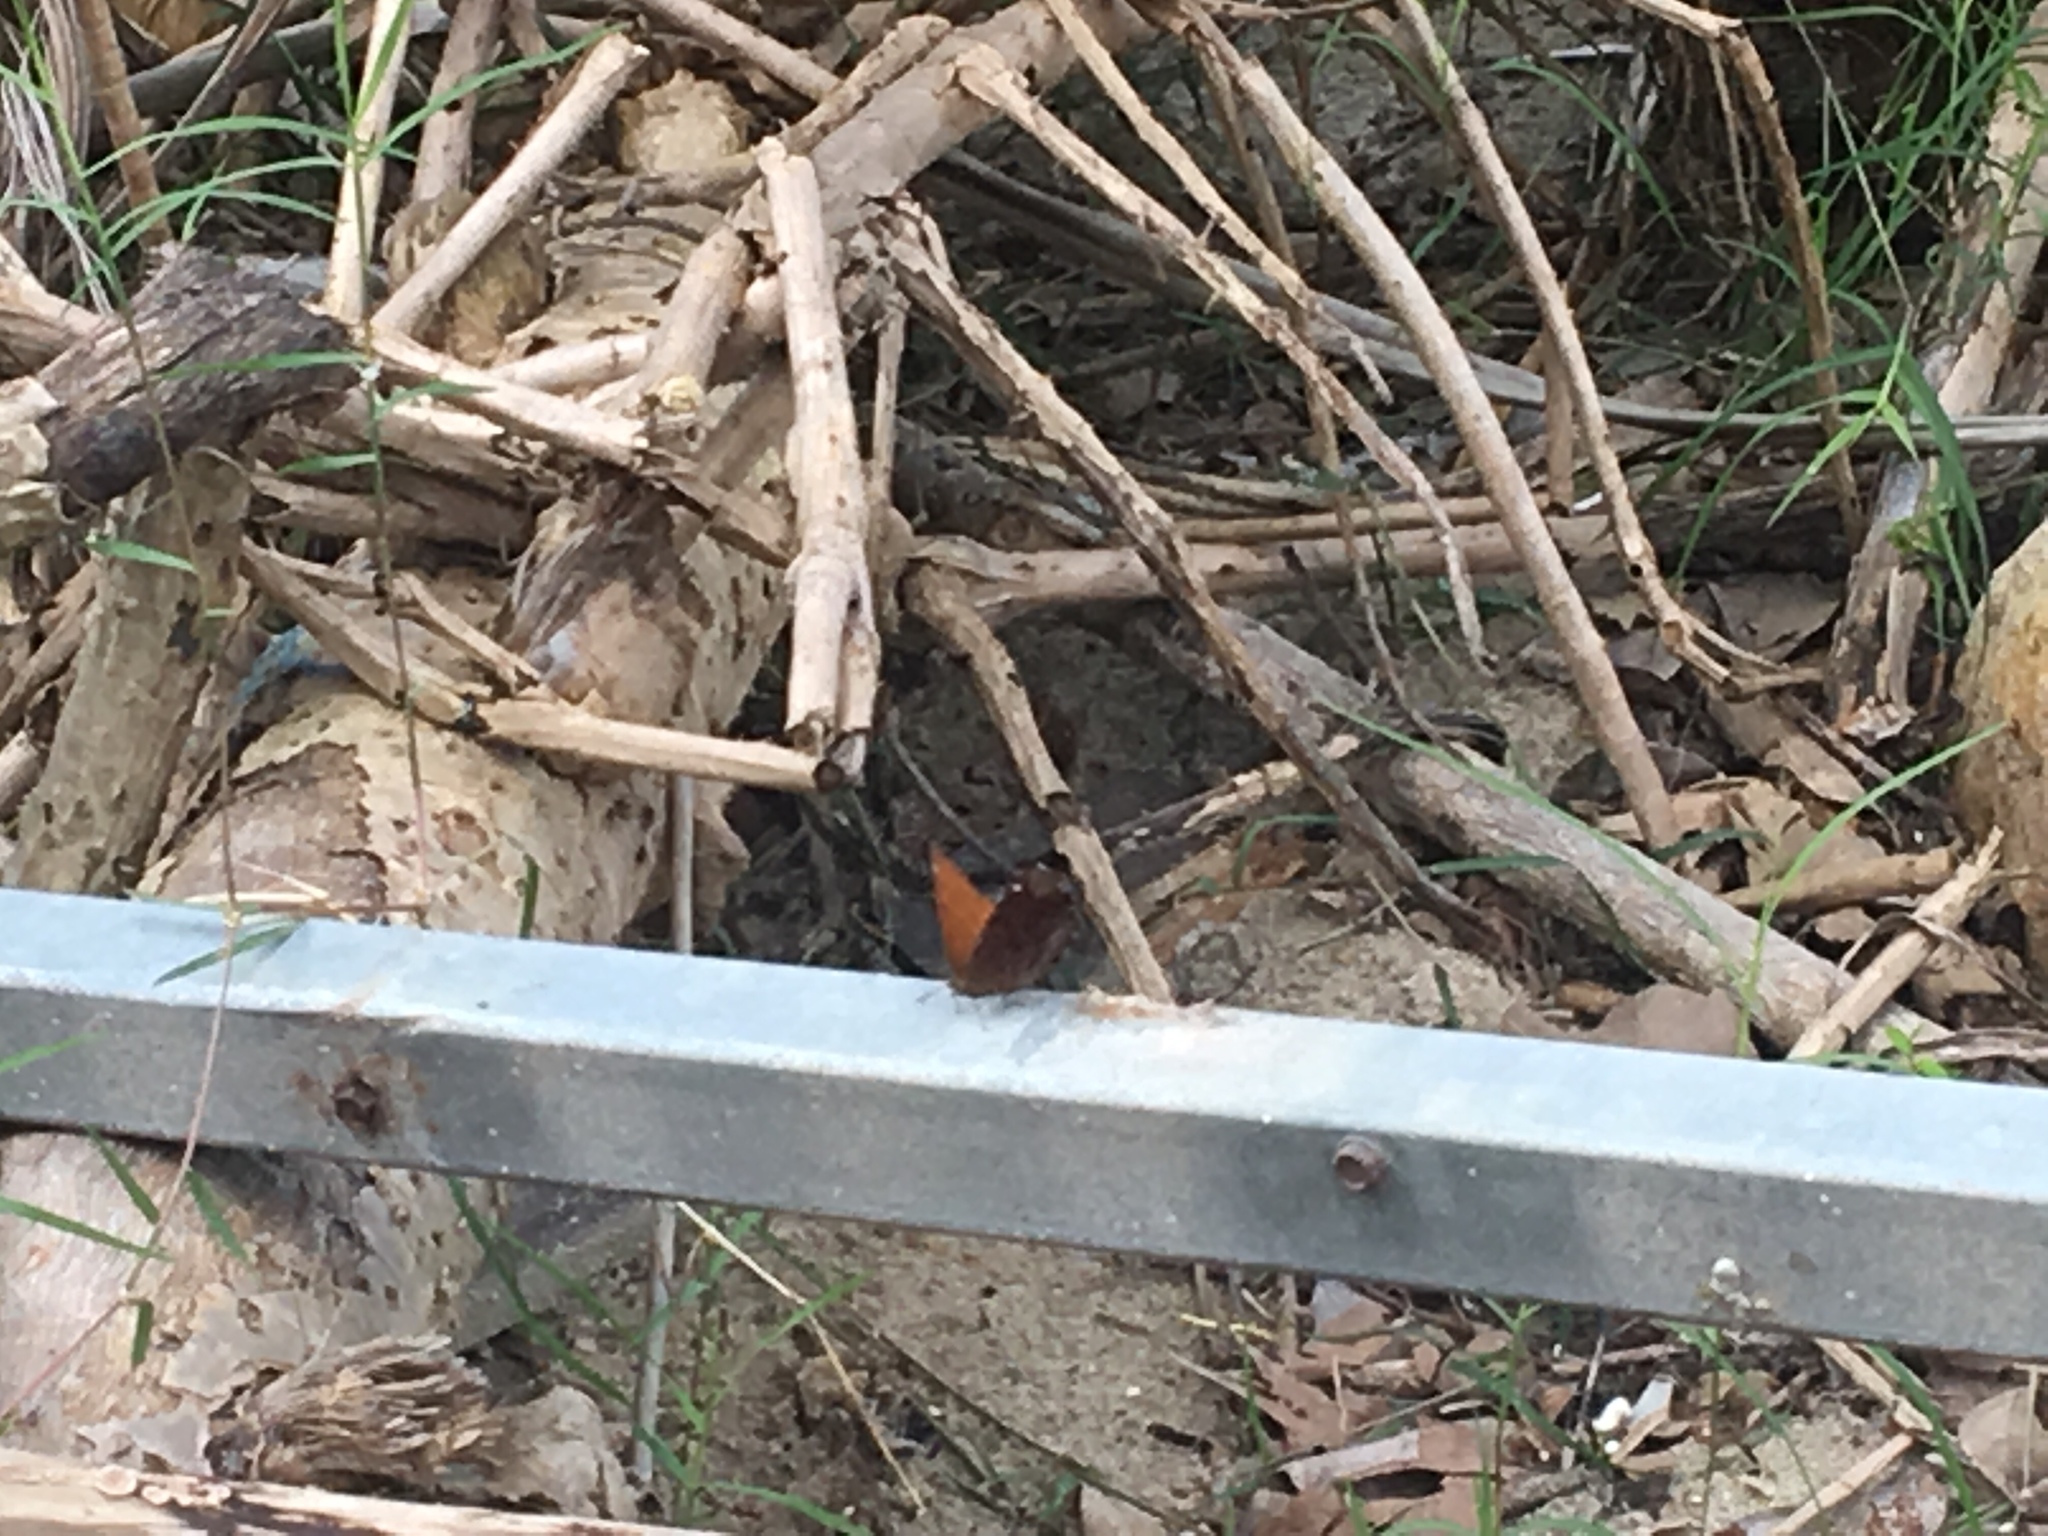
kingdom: Animalia
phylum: Arthropoda
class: Insecta
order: Lepidoptera
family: Nymphalidae
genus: Ariadne
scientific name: Ariadne ariadne
